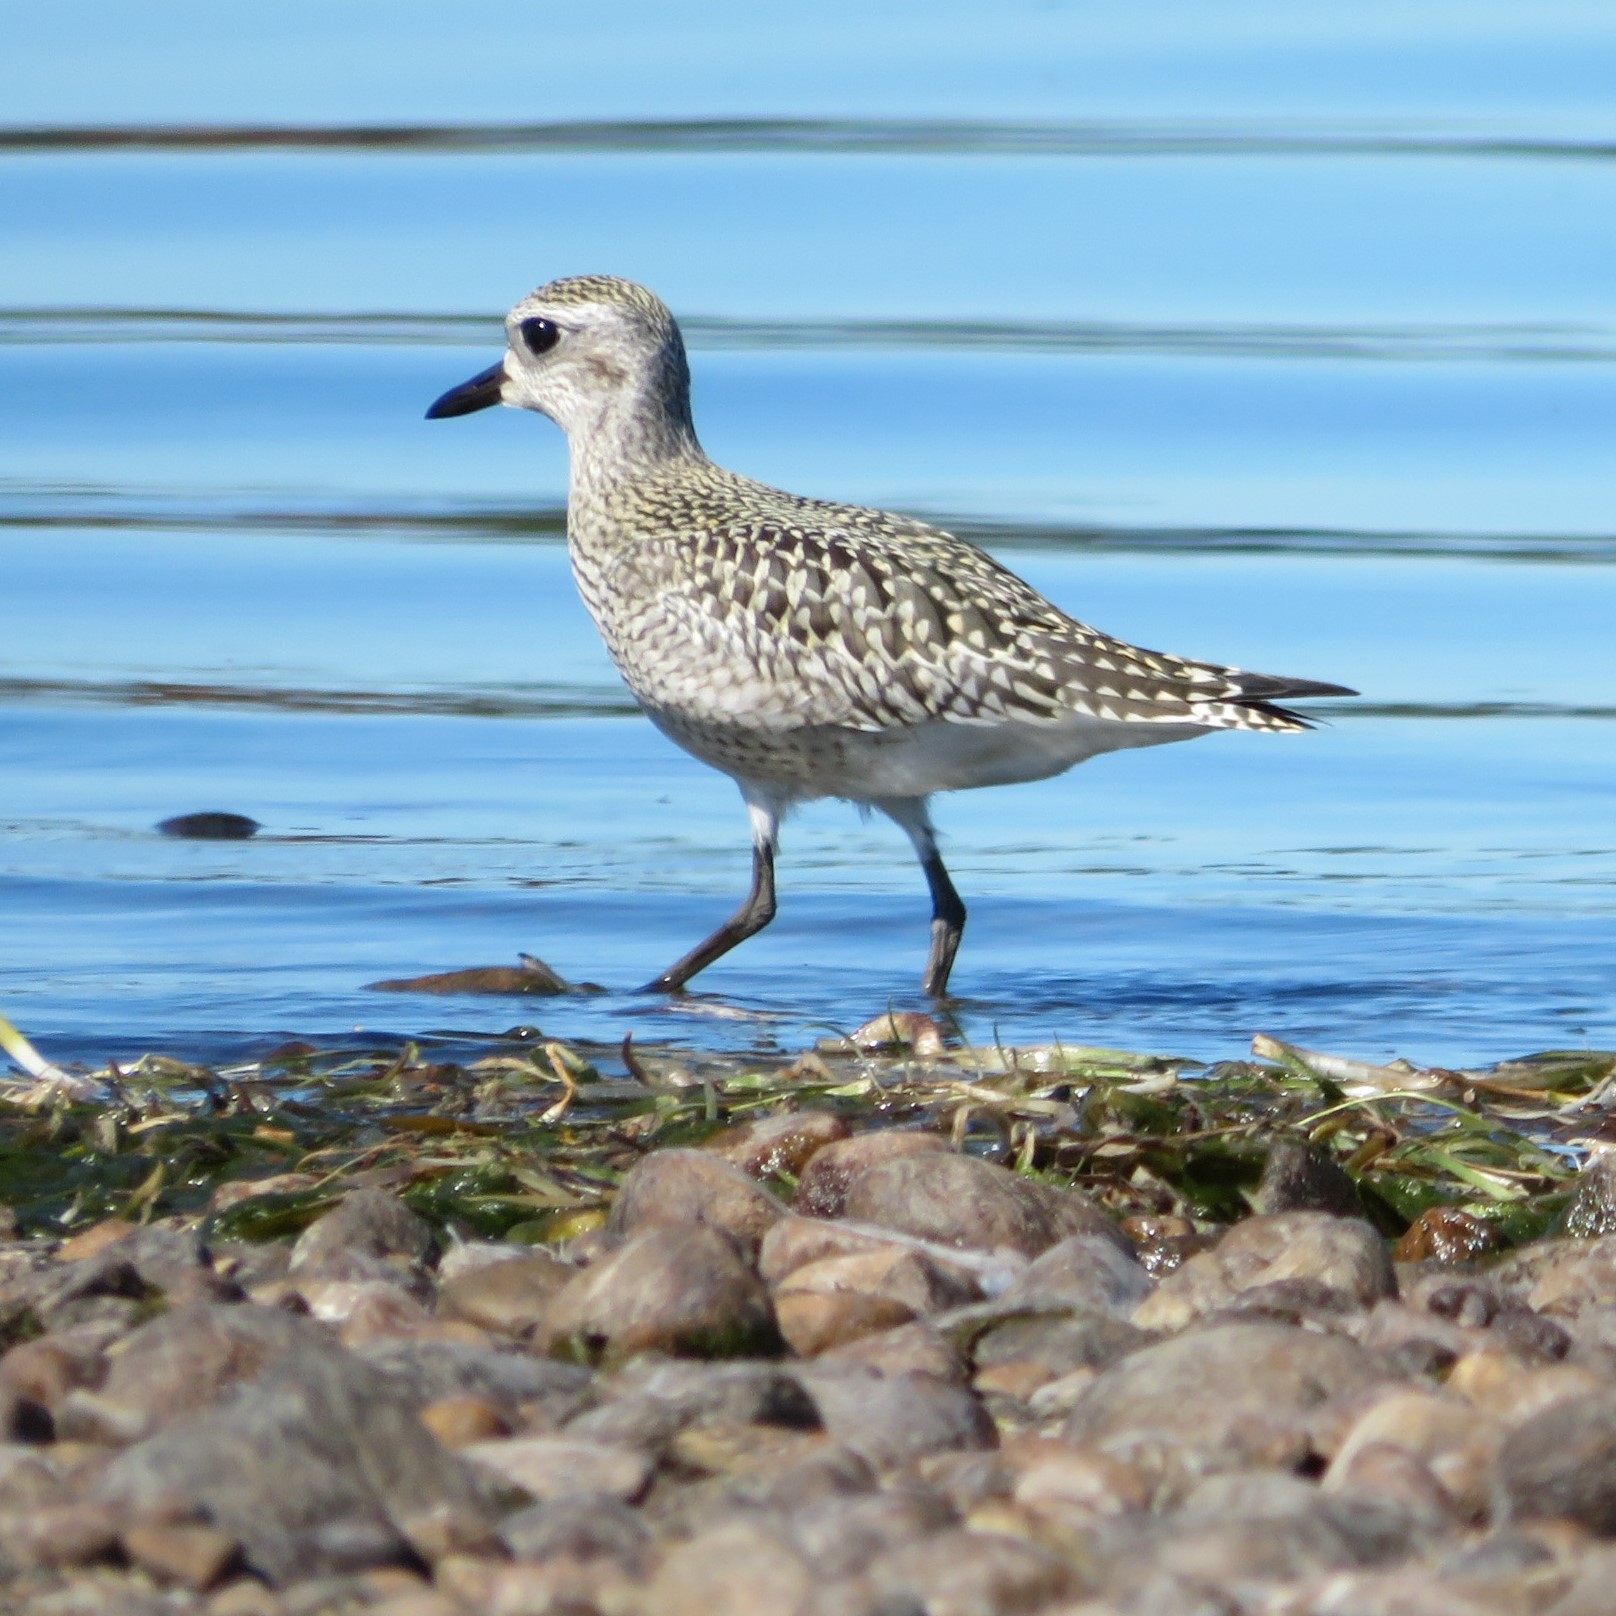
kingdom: Animalia
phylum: Chordata
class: Aves
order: Charadriiformes
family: Charadriidae
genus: Pluvialis
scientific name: Pluvialis squatarola
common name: Grey plover
